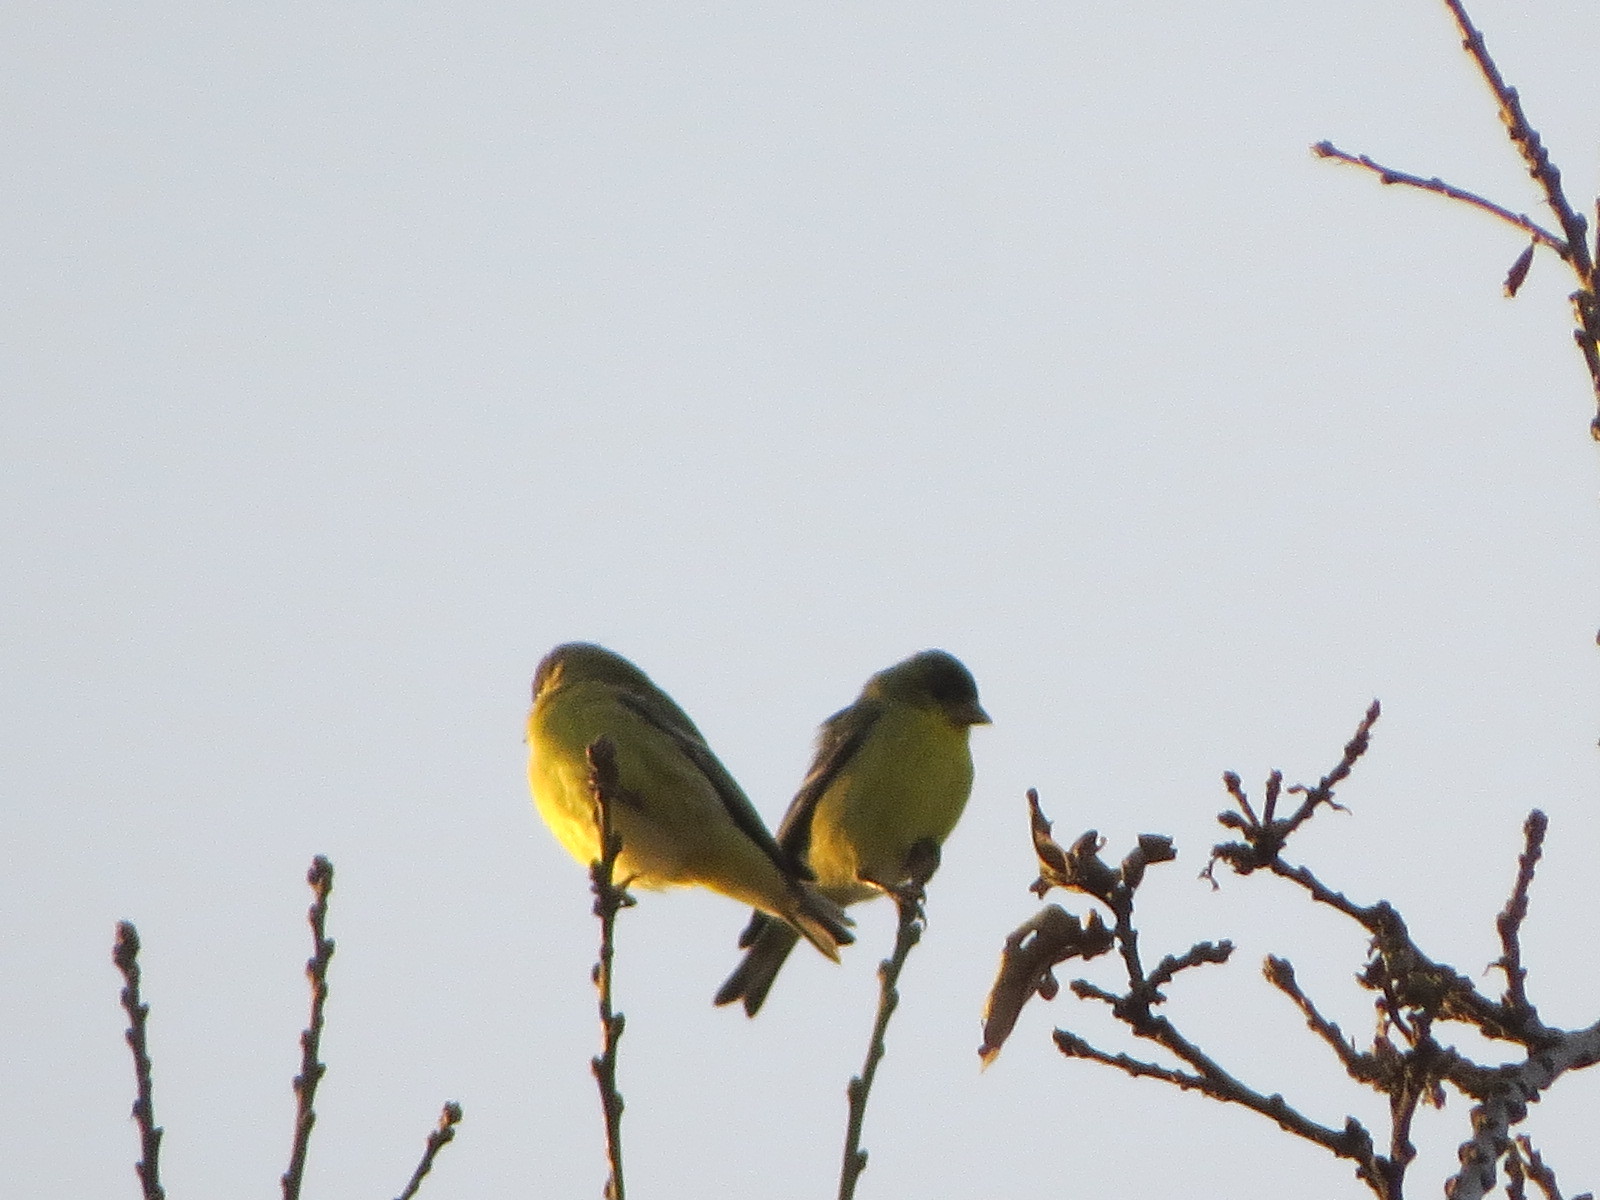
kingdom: Animalia
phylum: Chordata
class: Aves
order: Passeriformes
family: Fringillidae
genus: Spinus
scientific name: Spinus psaltria
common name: Lesser goldfinch
